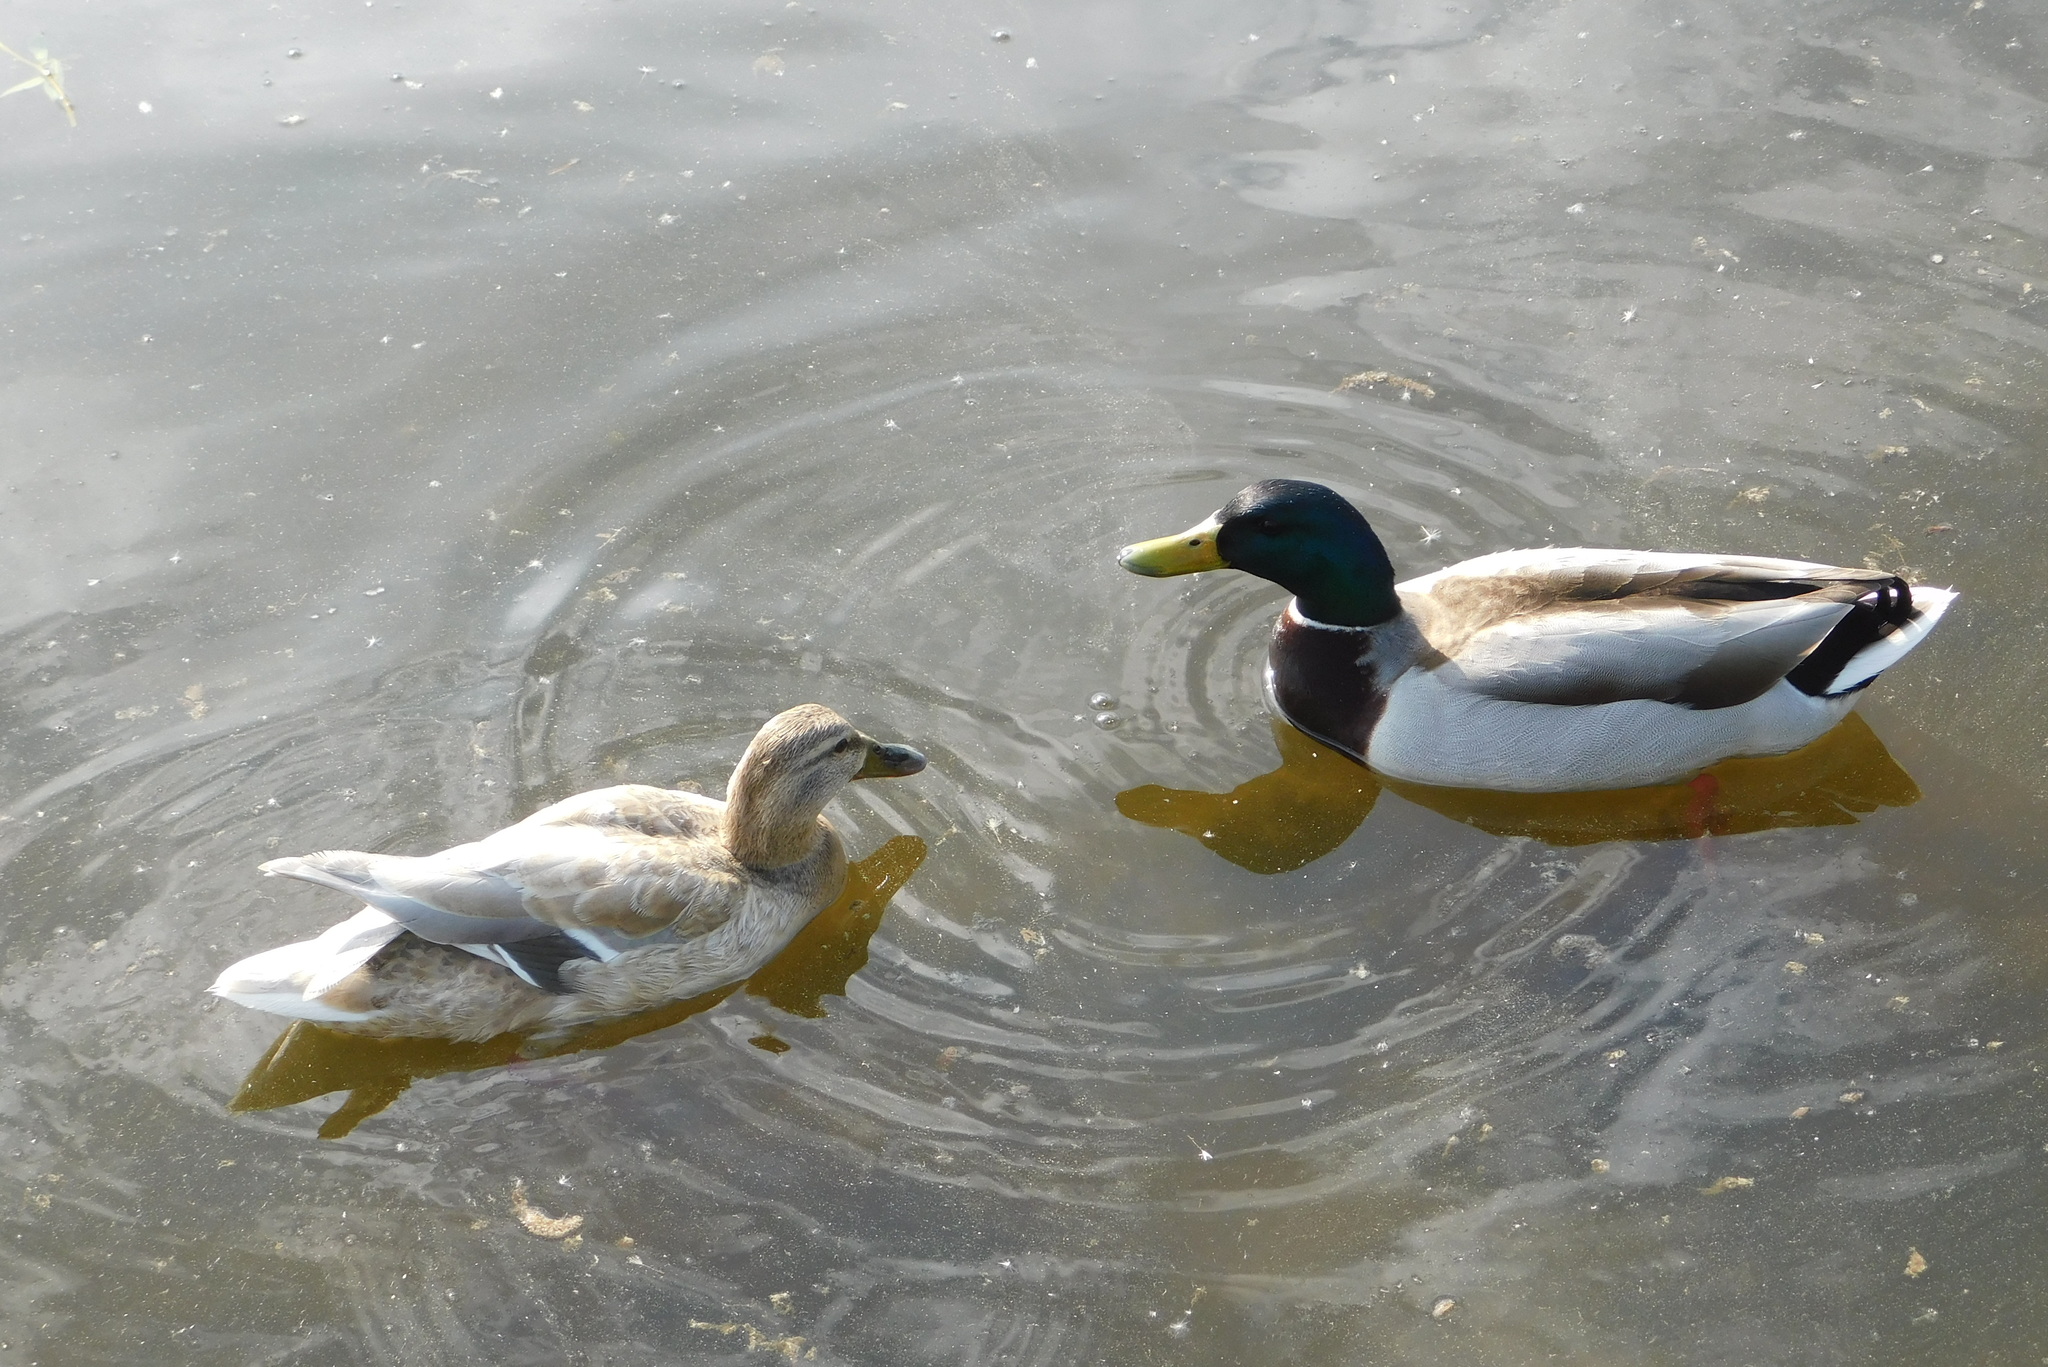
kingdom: Animalia
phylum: Chordata
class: Aves
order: Anseriformes
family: Anatidae
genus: Anas
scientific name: Anas platyrhynchos
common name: Mallard
